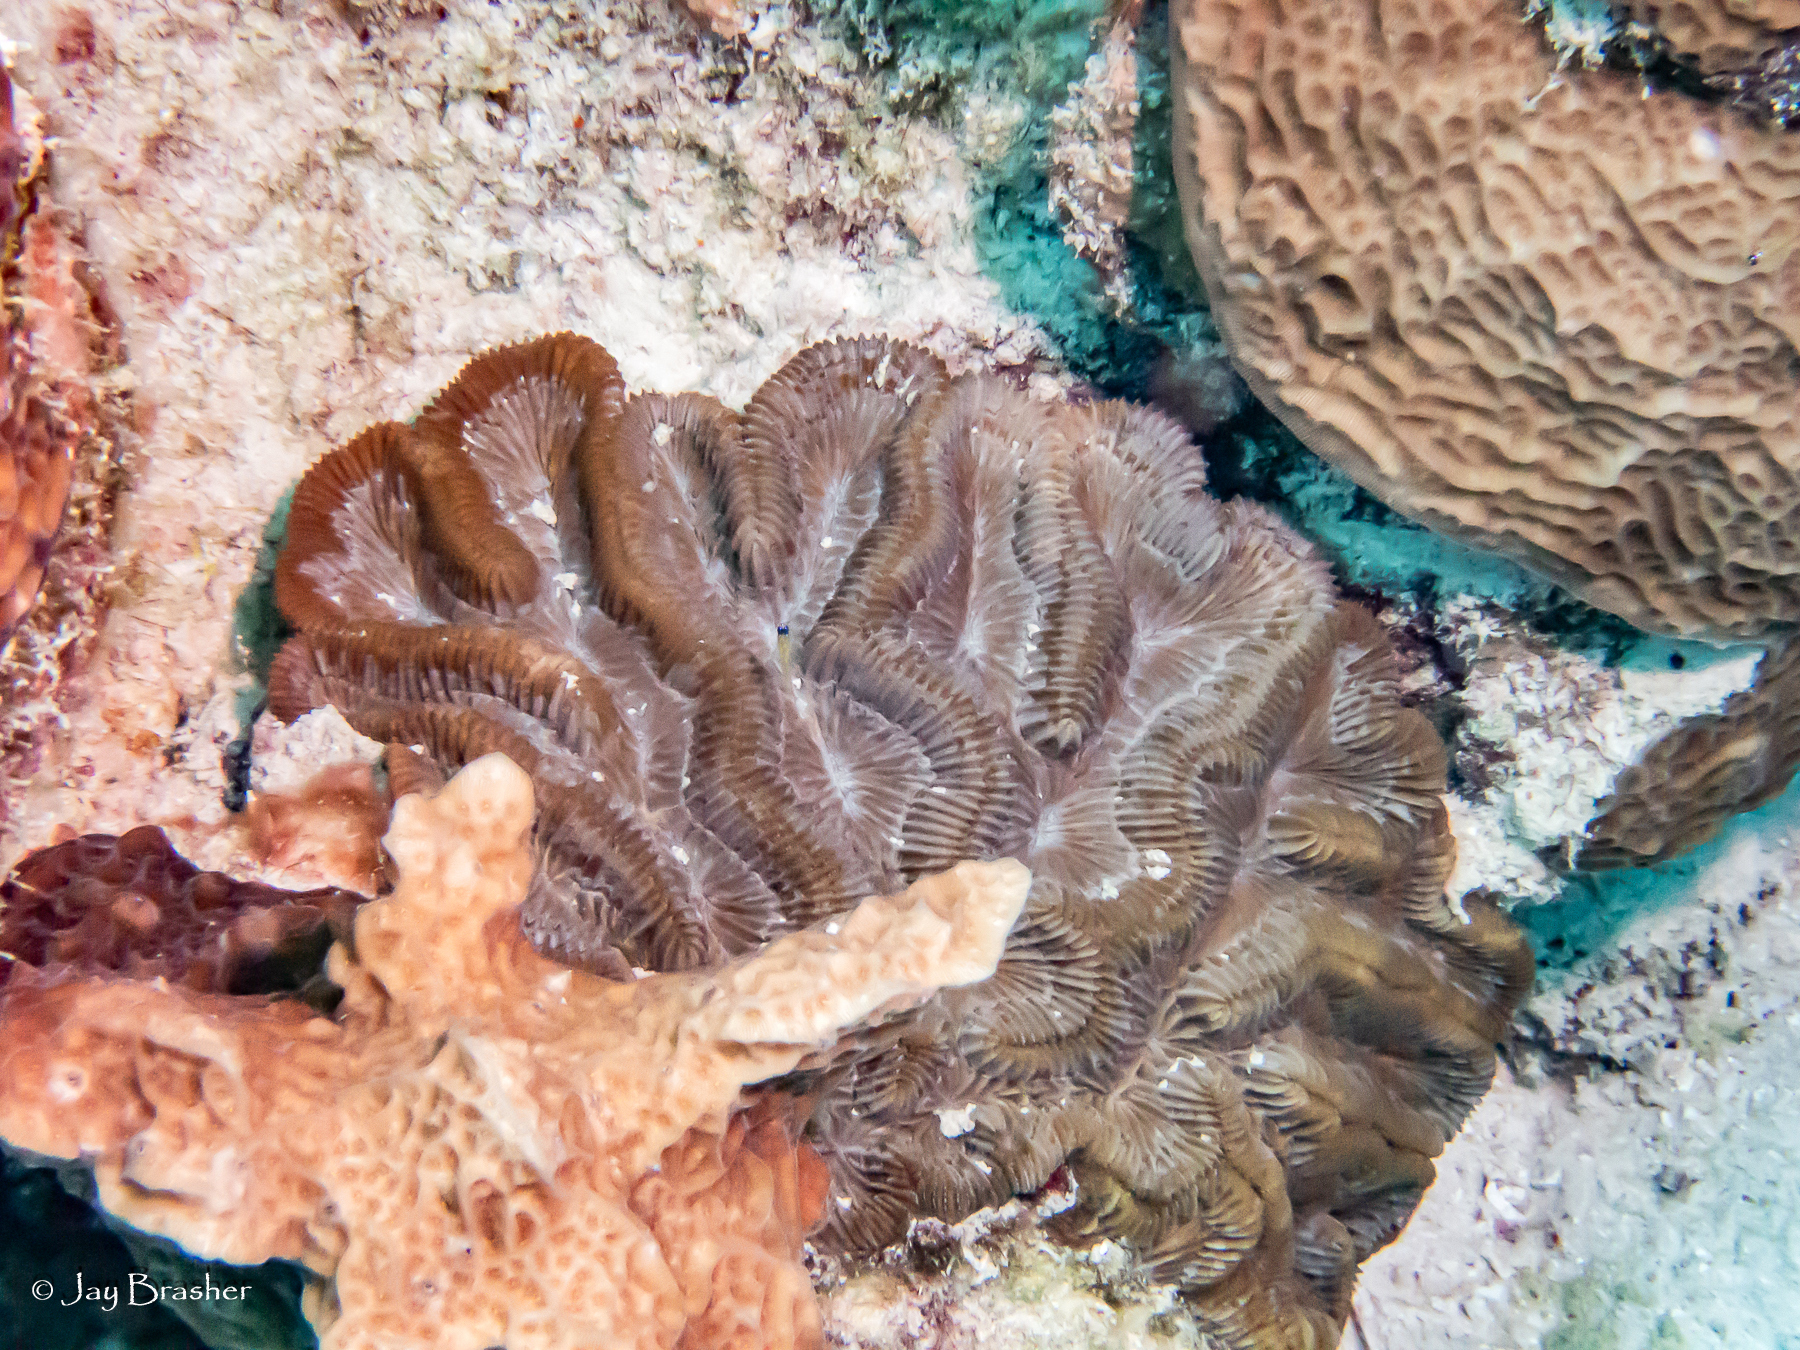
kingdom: Animalia
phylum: Cnidaria
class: Anthozoa
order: Scleractinia
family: Faviidae
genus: Colpophyllia
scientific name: Colpophyllia natans
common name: Boulder brain coral
